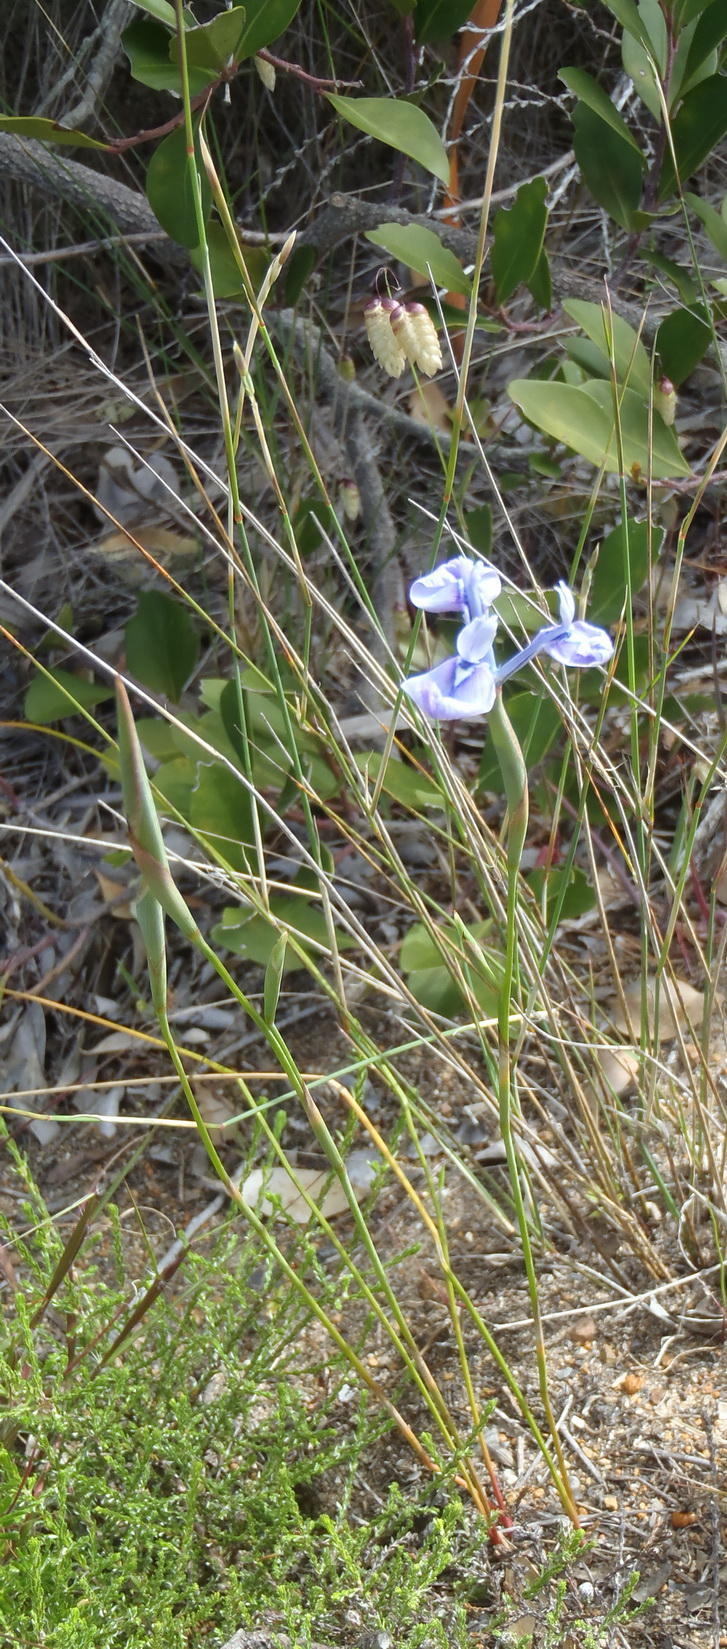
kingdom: Plantae
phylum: Tracheophyta
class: Liliopsida
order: Asparagales
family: Iridaceae
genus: Moraea
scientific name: Moraea tripetala
